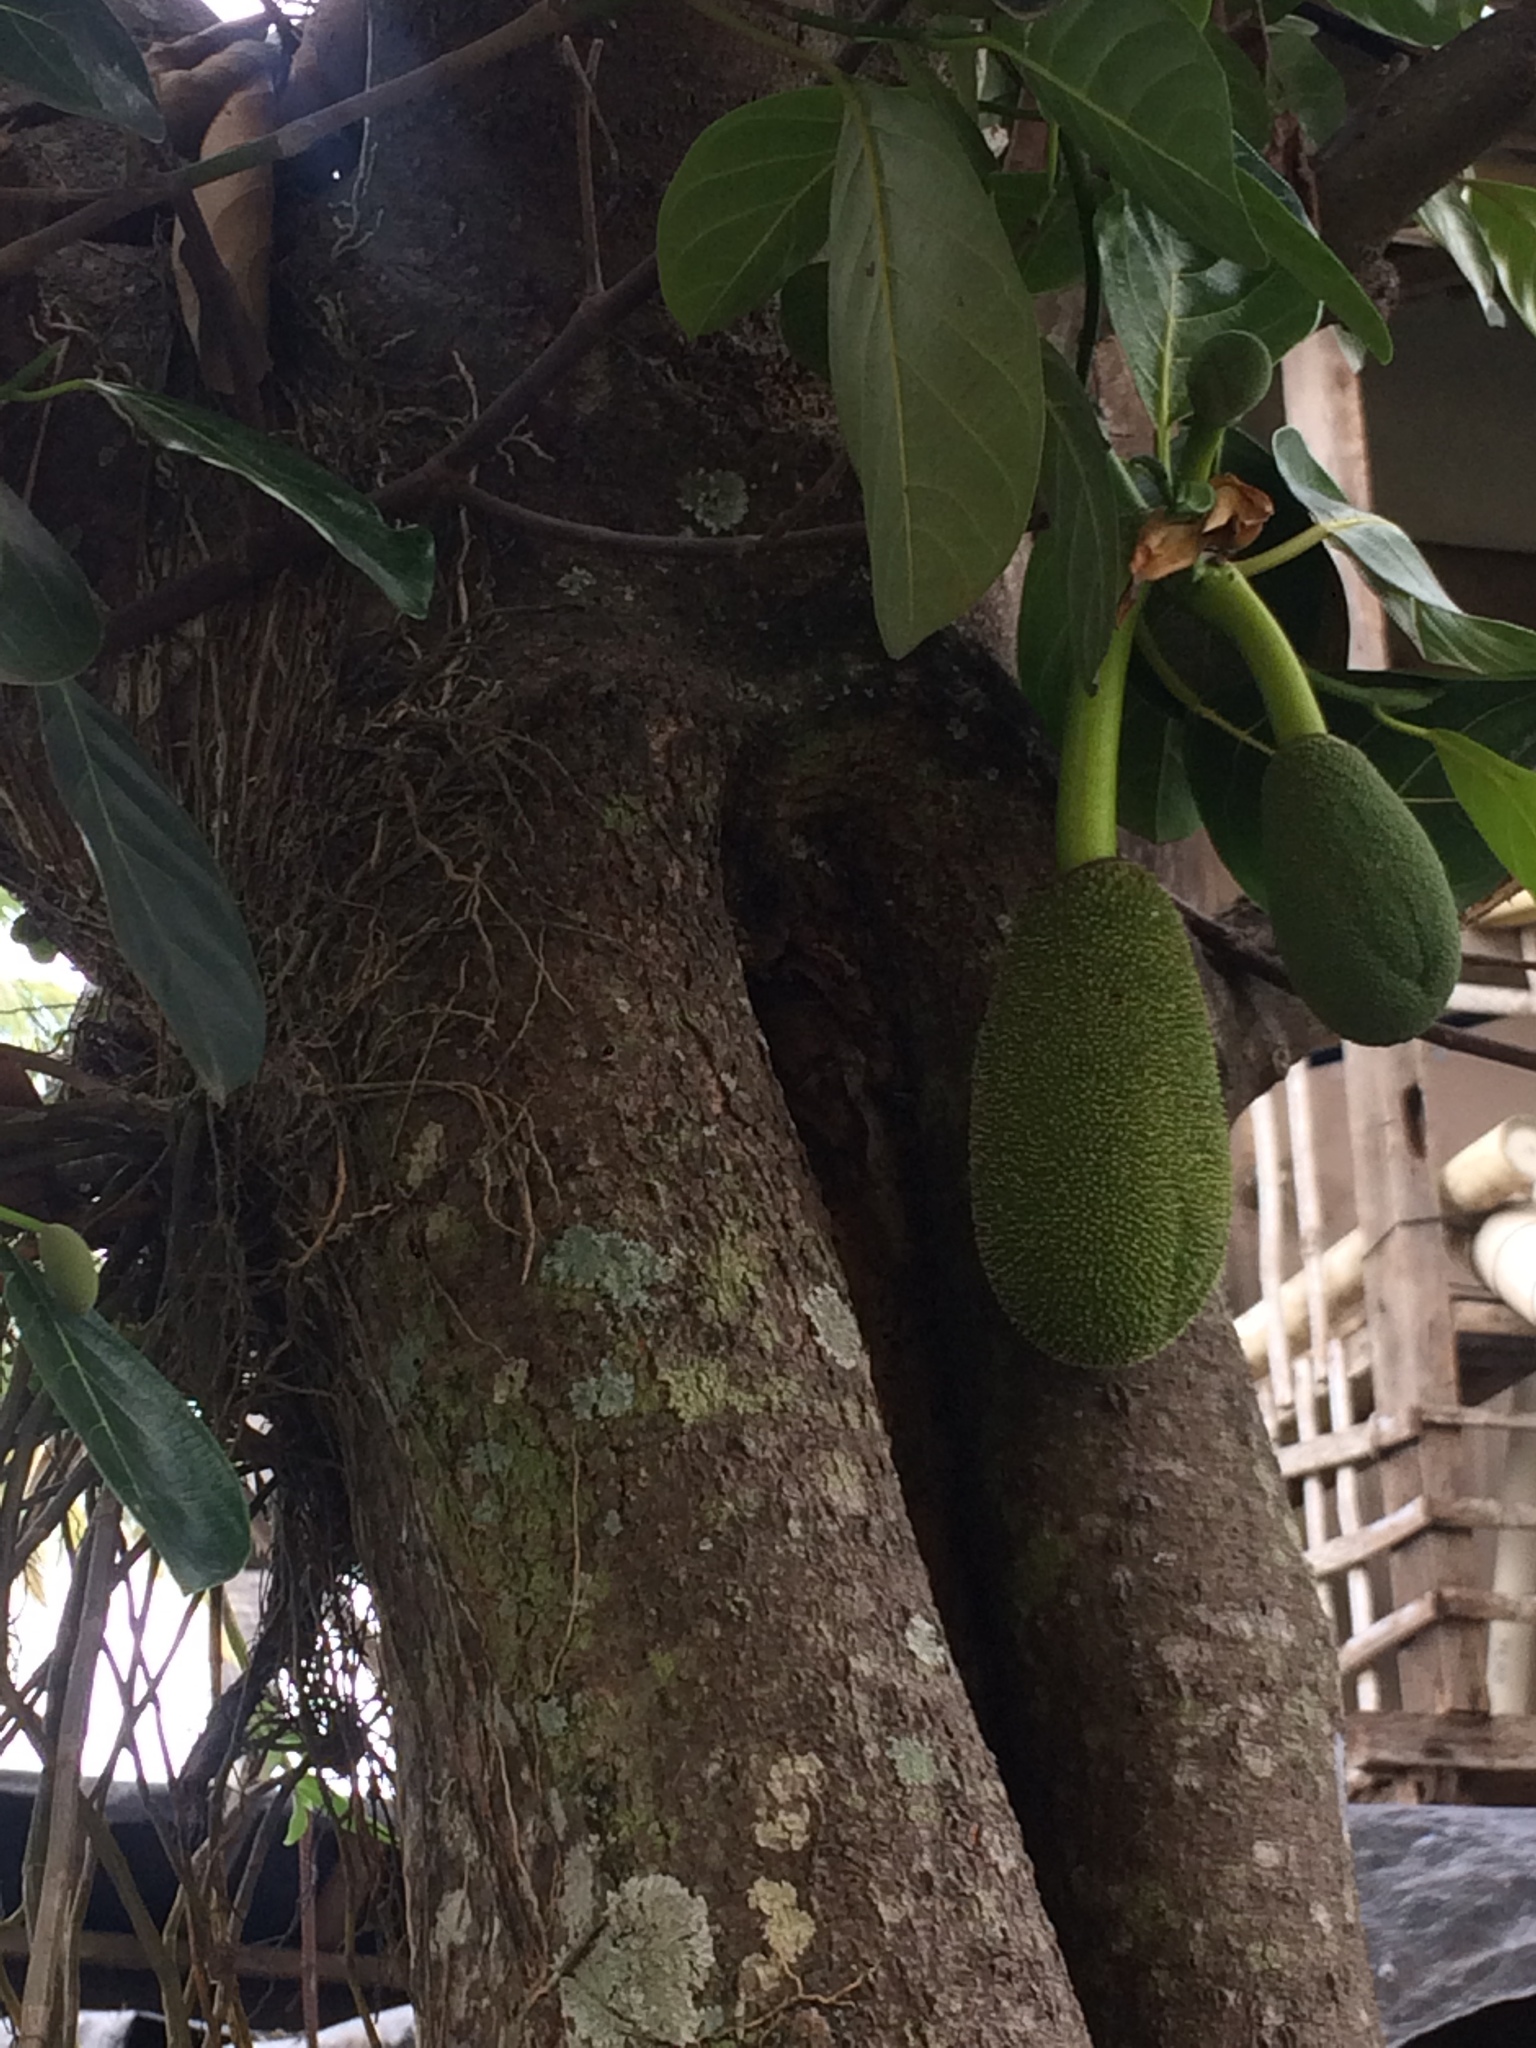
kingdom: Plantae
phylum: Tracheophyta
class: Magnoliopsida
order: Rosales
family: Moraceae
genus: Artocarpus
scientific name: Artocarpus heterophyllus
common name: Jackfruit
